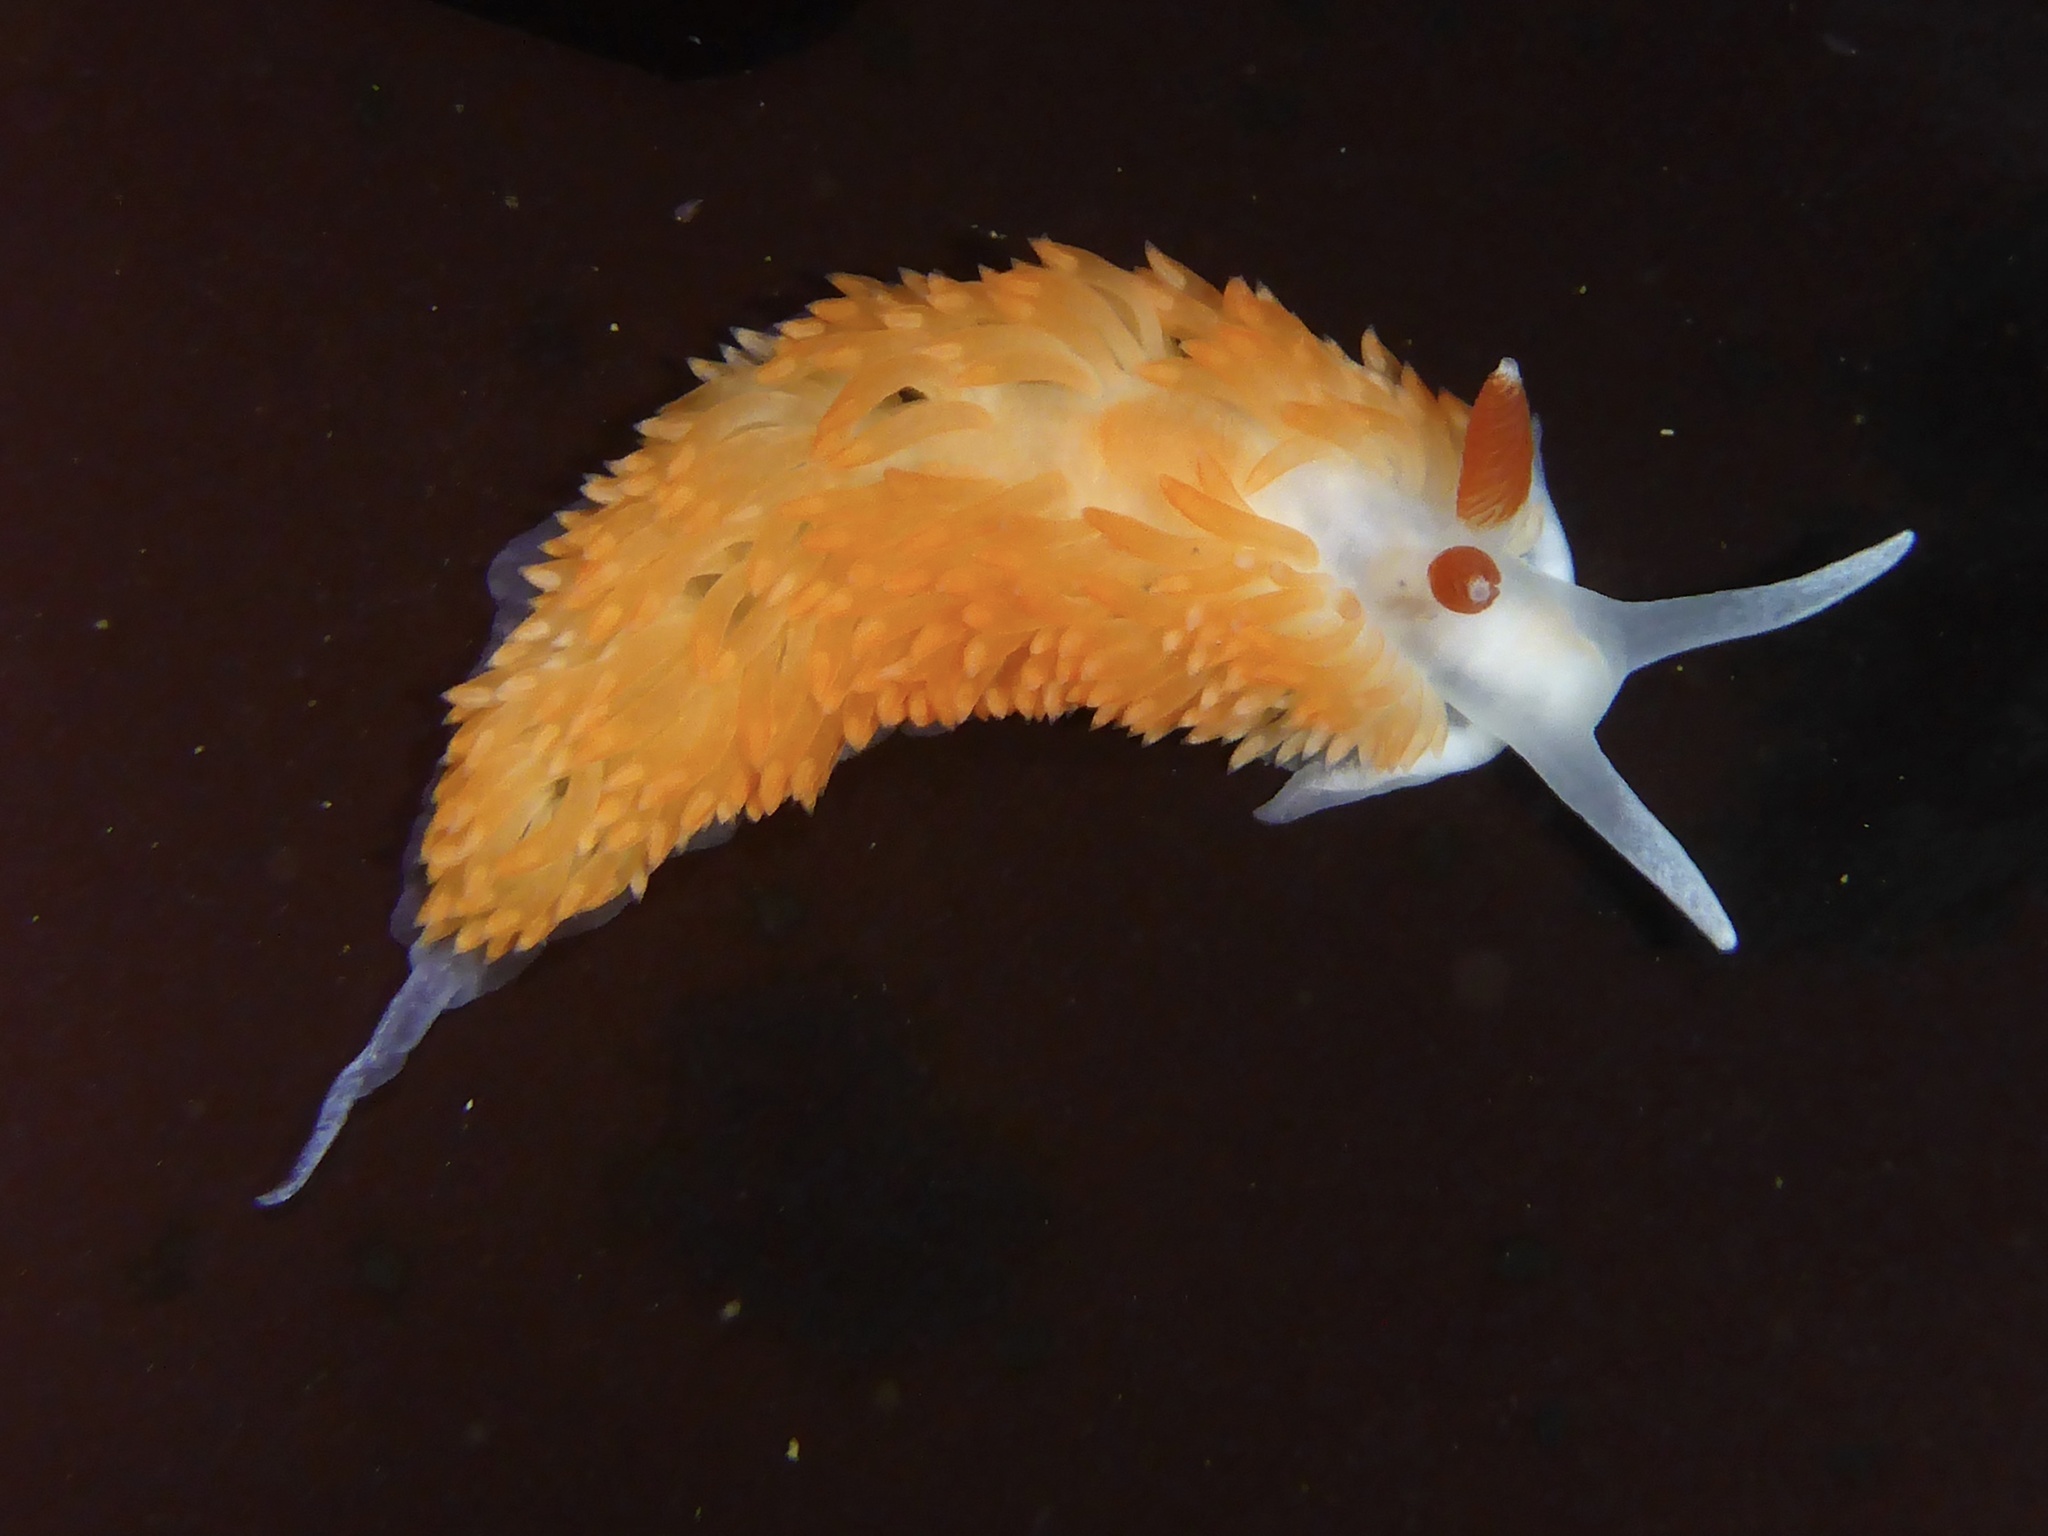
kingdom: Animalia
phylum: Mollusca
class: Gastropoda
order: Nudibranchia
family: Aeolidiidae
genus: Anteaeolidiella
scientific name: Anteaeolidiella oliviae
